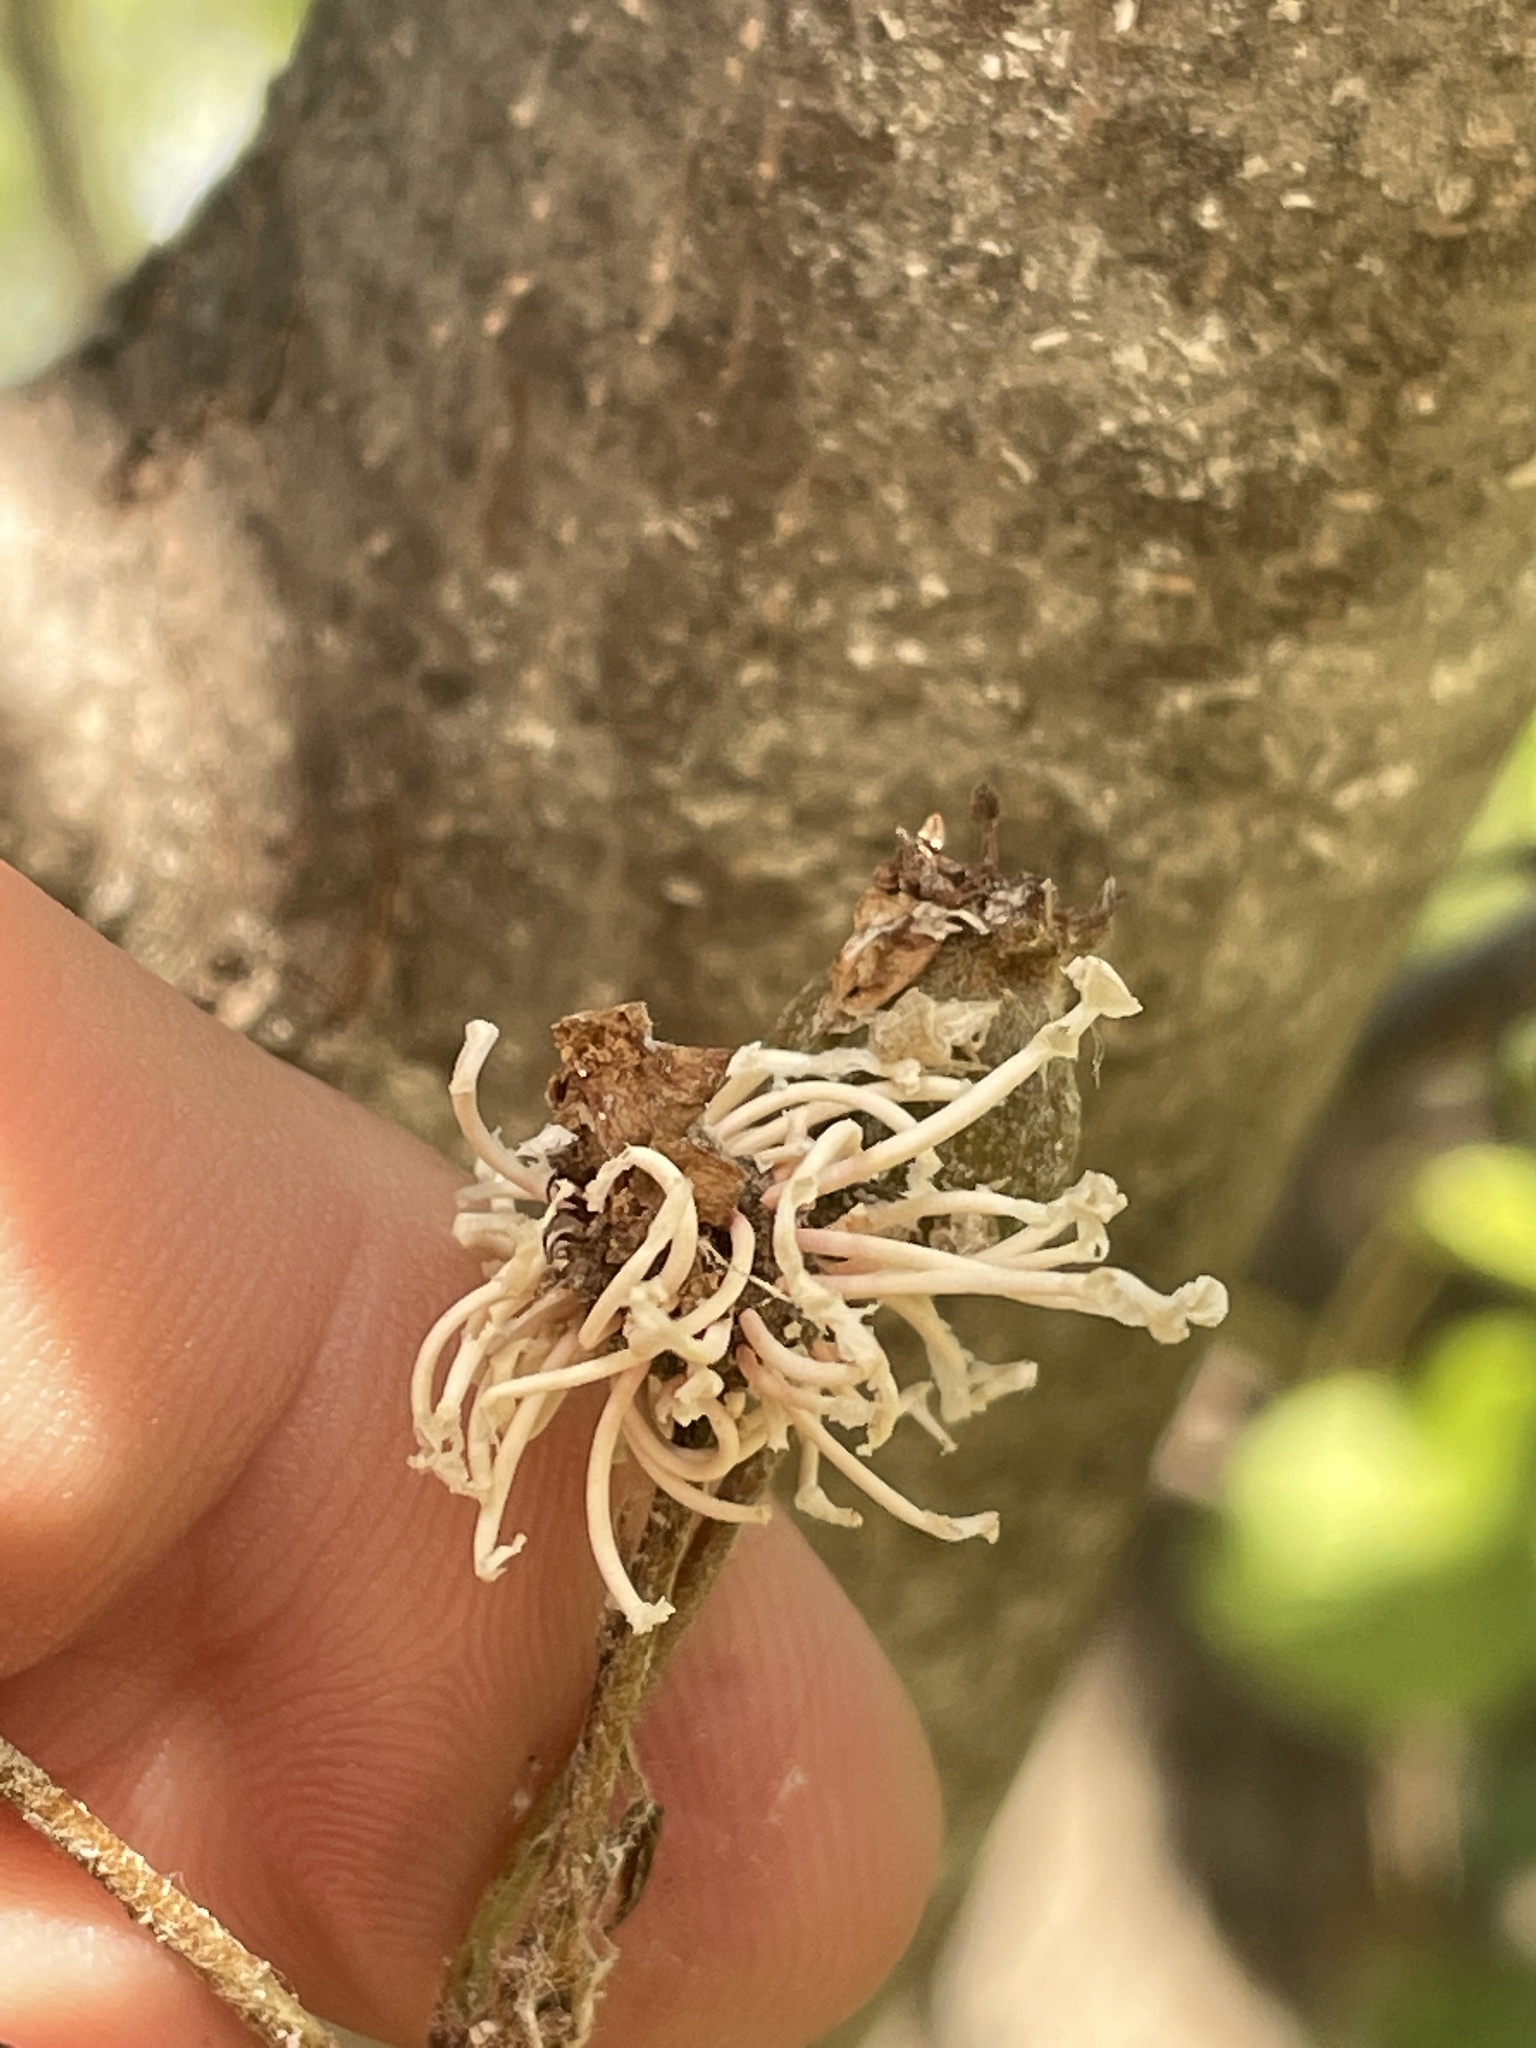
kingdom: Fungi
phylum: Basidiomycota
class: Pucciniomycetes
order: Pucciniales
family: Gymnosporangiaceae
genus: Gymnosporangium
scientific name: Gymnosporangium clavipes
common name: Quince rust
